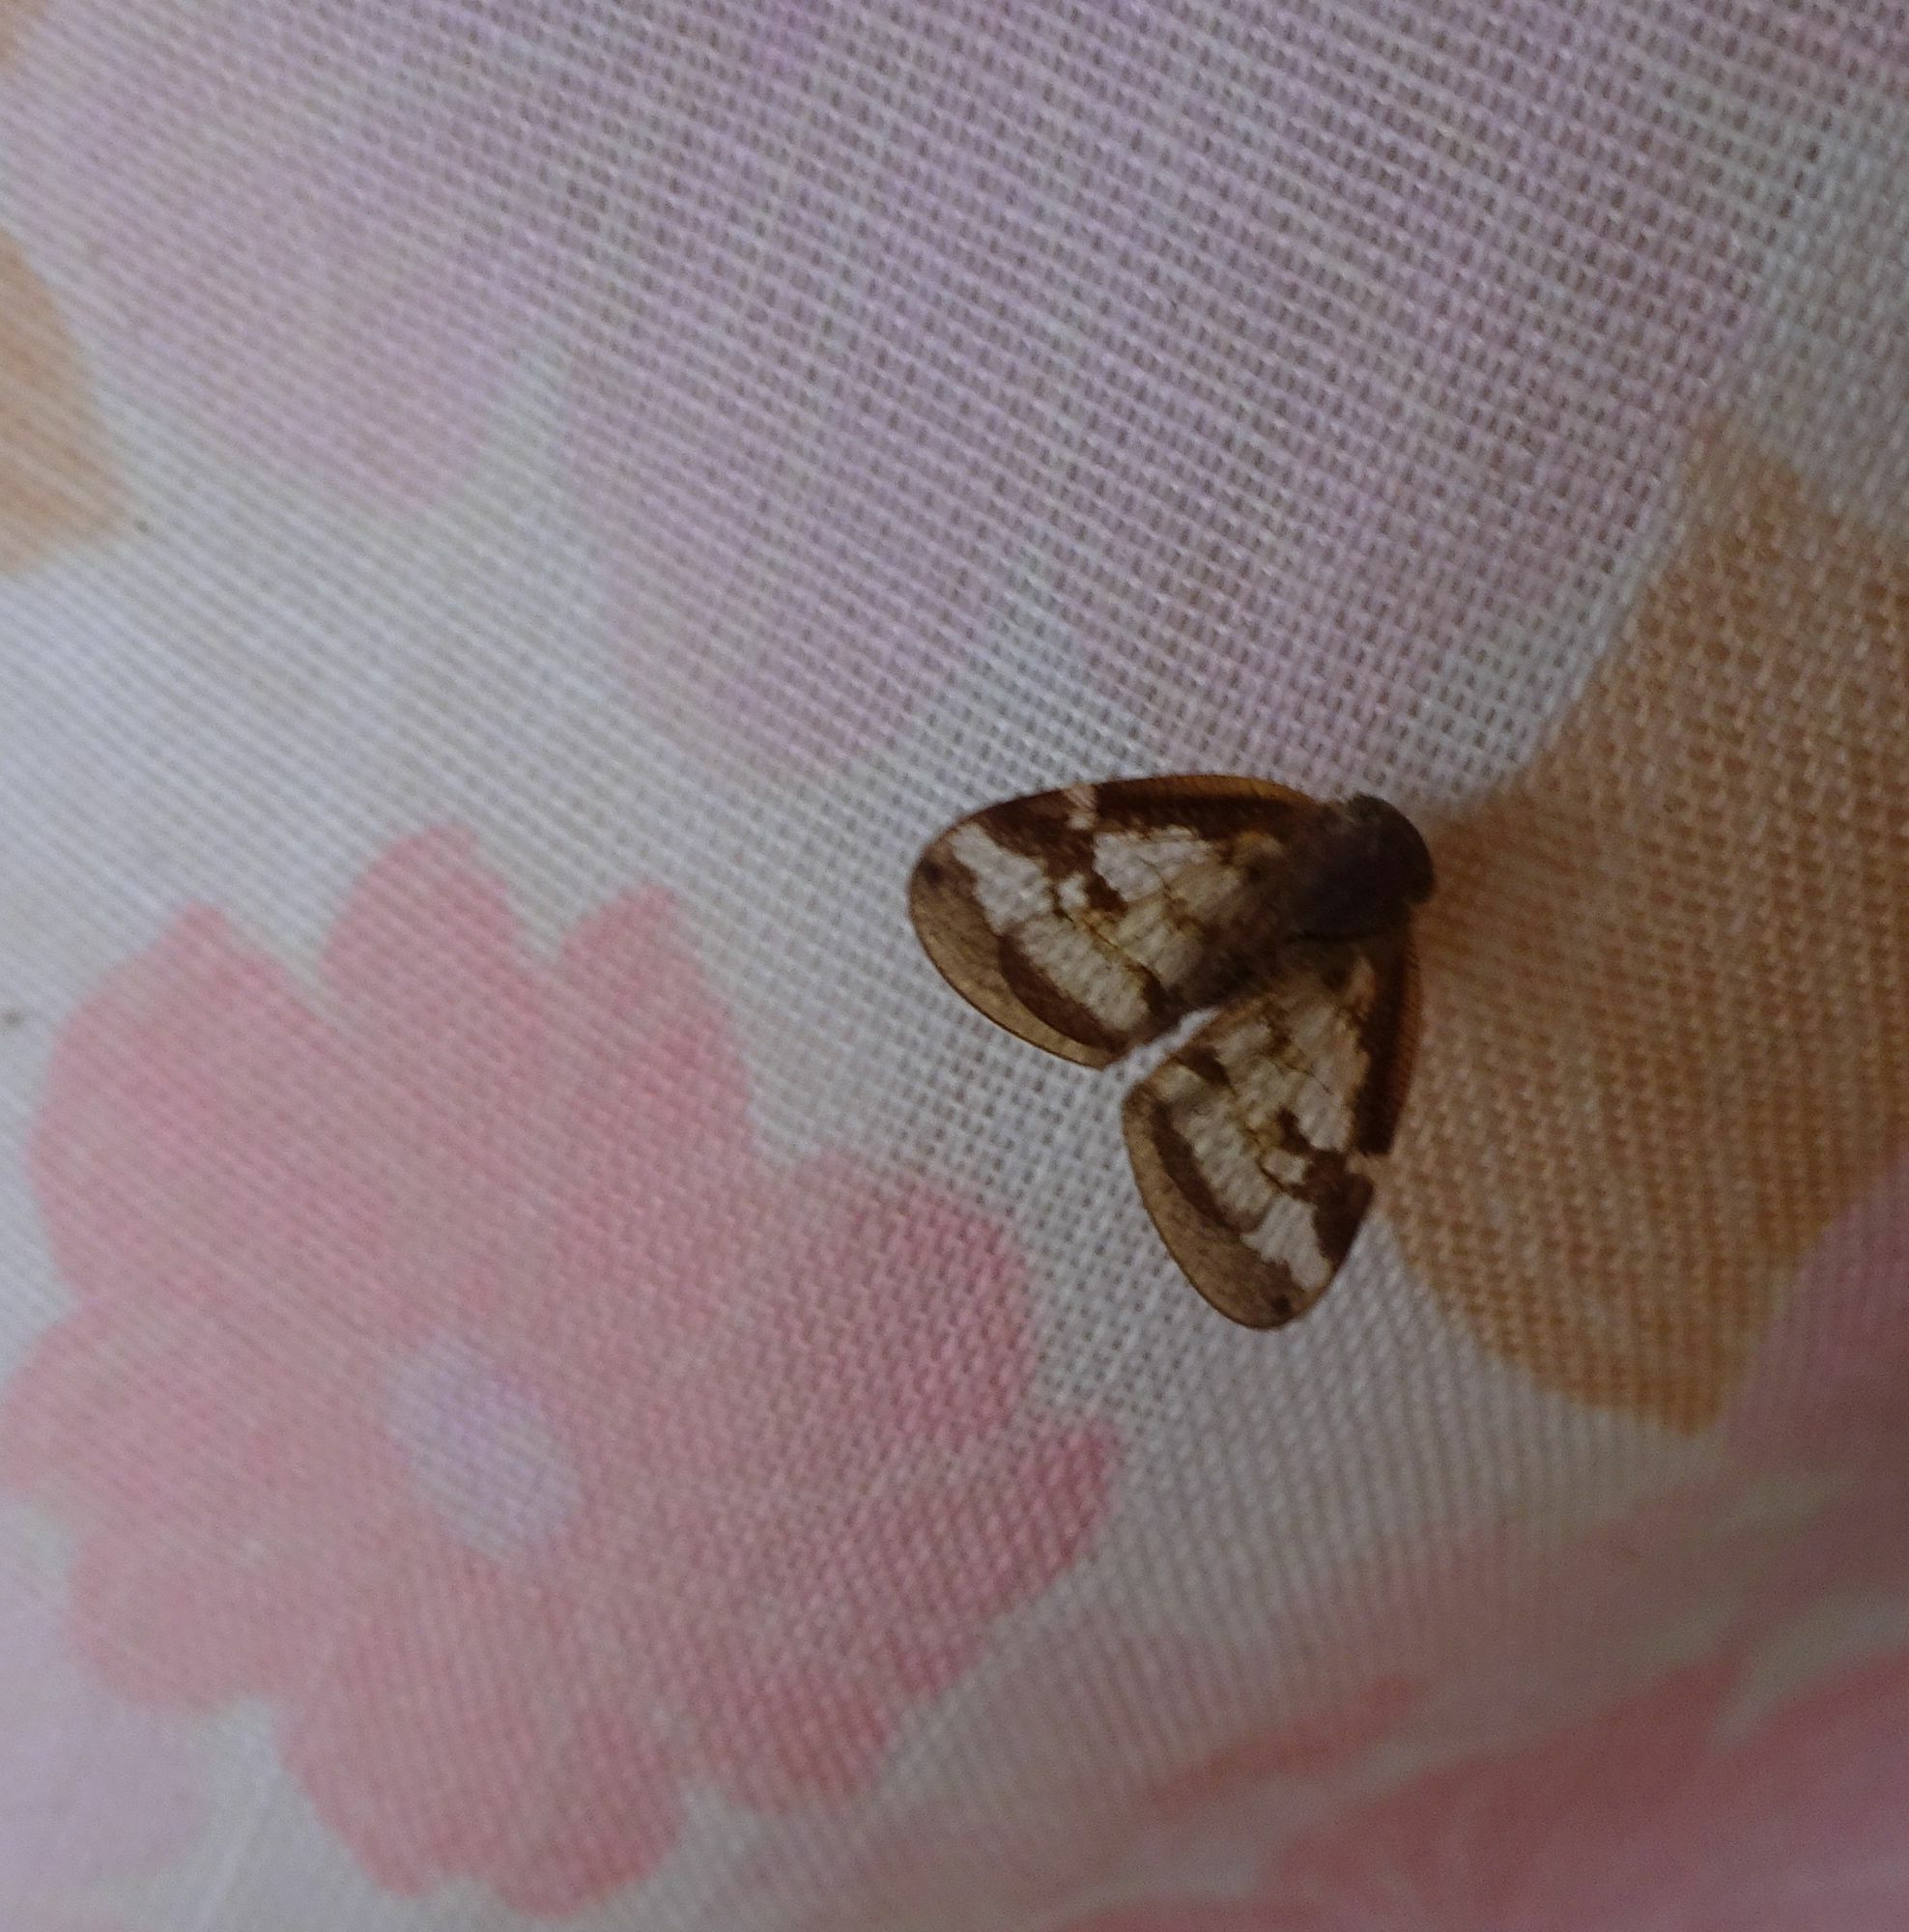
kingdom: Animalia
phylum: Arthropoda
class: Insecta
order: Hemiptera
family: Ricaniidae
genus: Scolypopa
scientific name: Scolypopa australis
